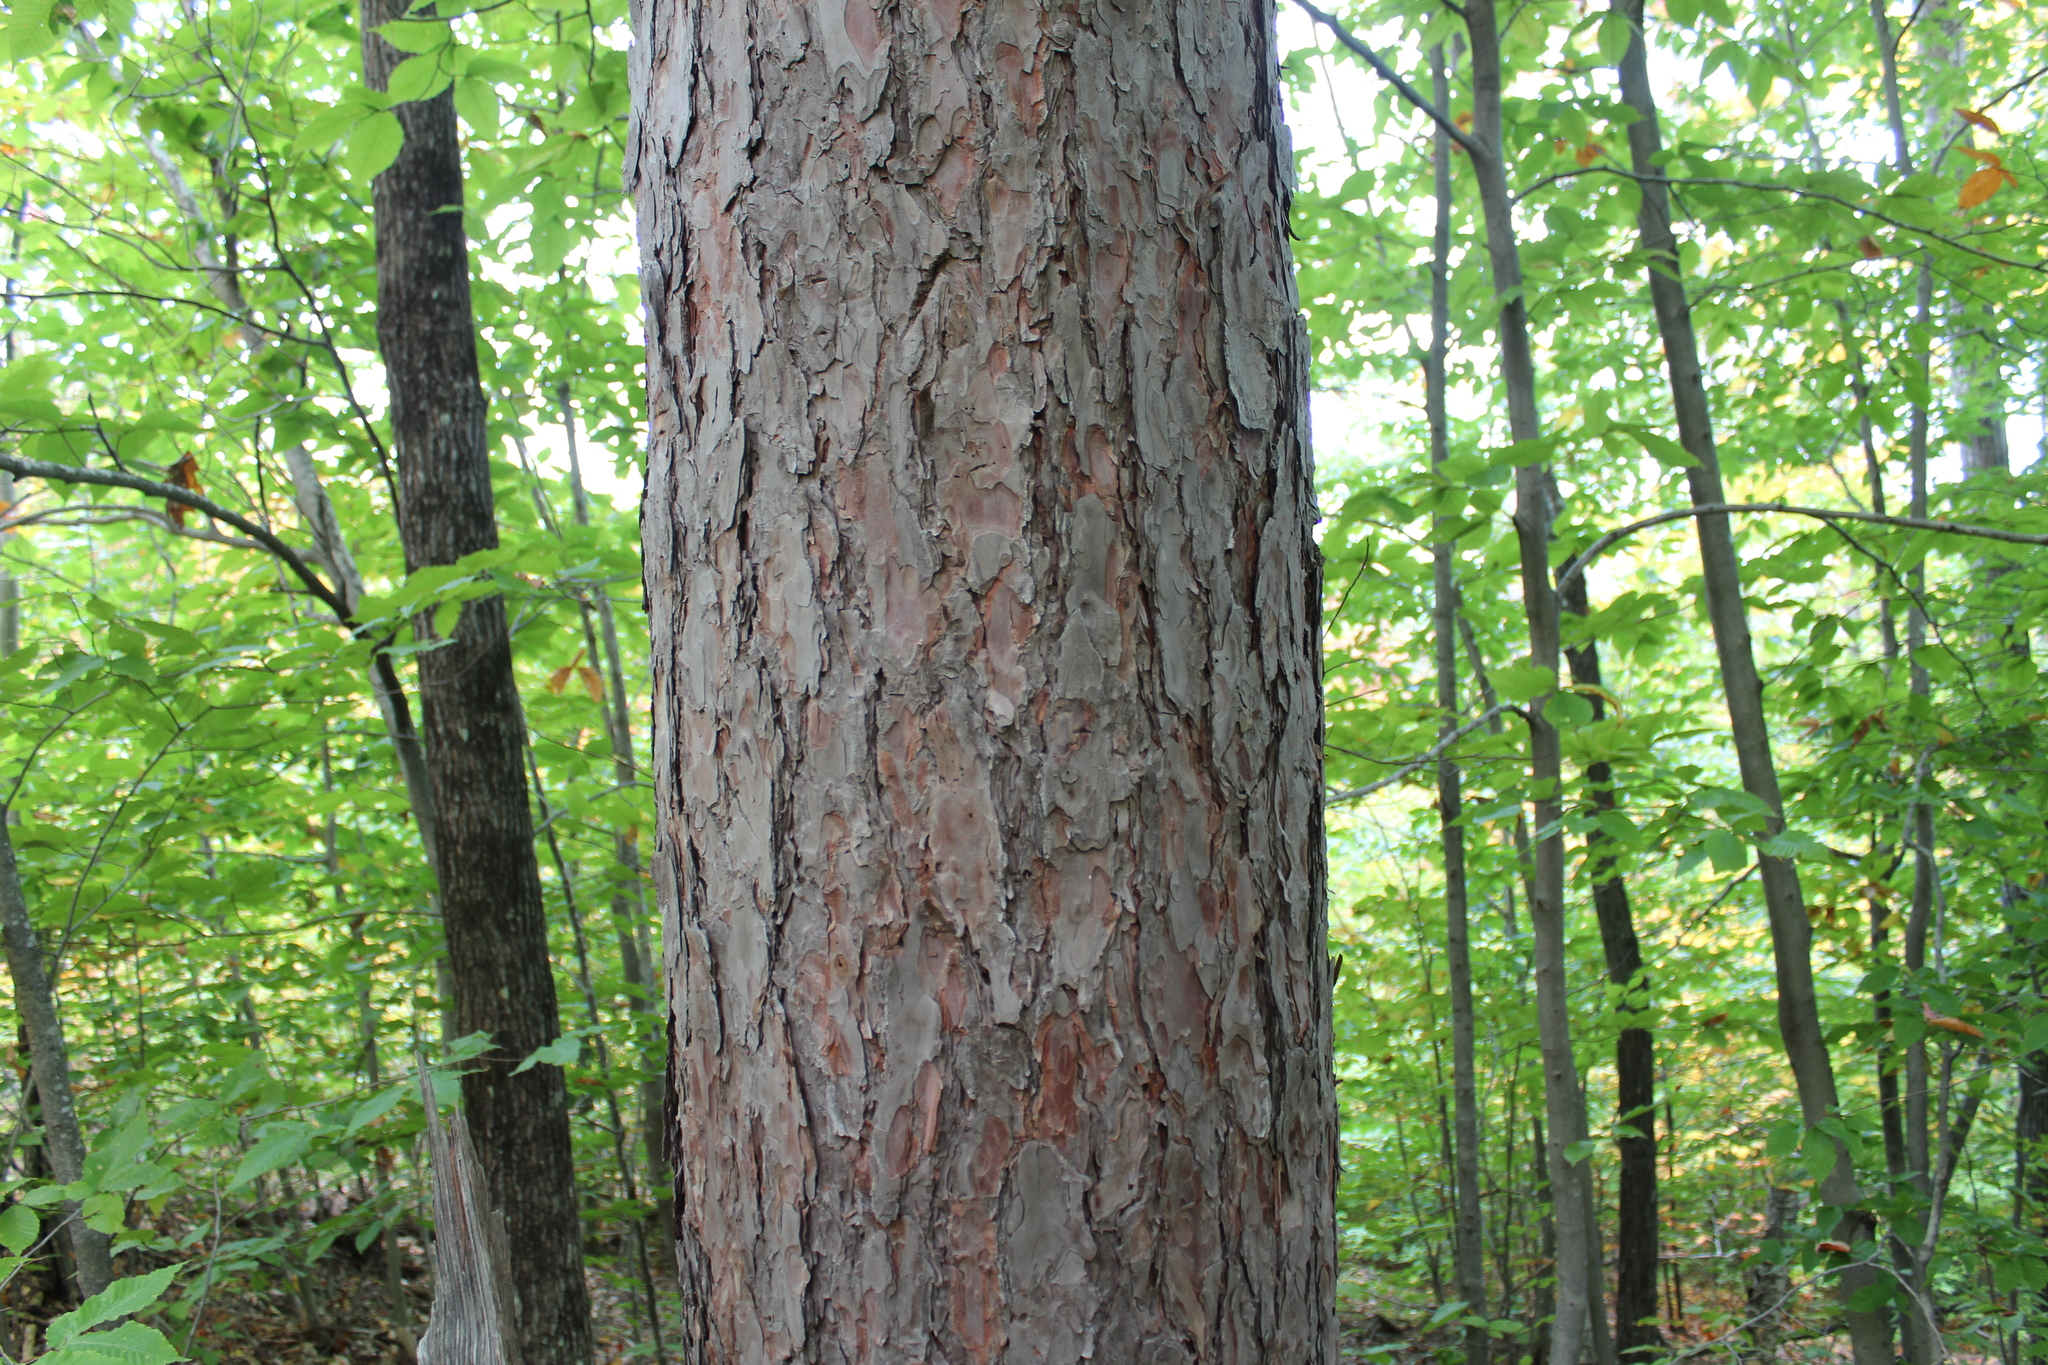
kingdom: Plantae
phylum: Tracheophyta
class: Pinopsida
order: Pinales
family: Pinaceae
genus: Pinus
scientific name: Pinus resinosa
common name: Norway pine
